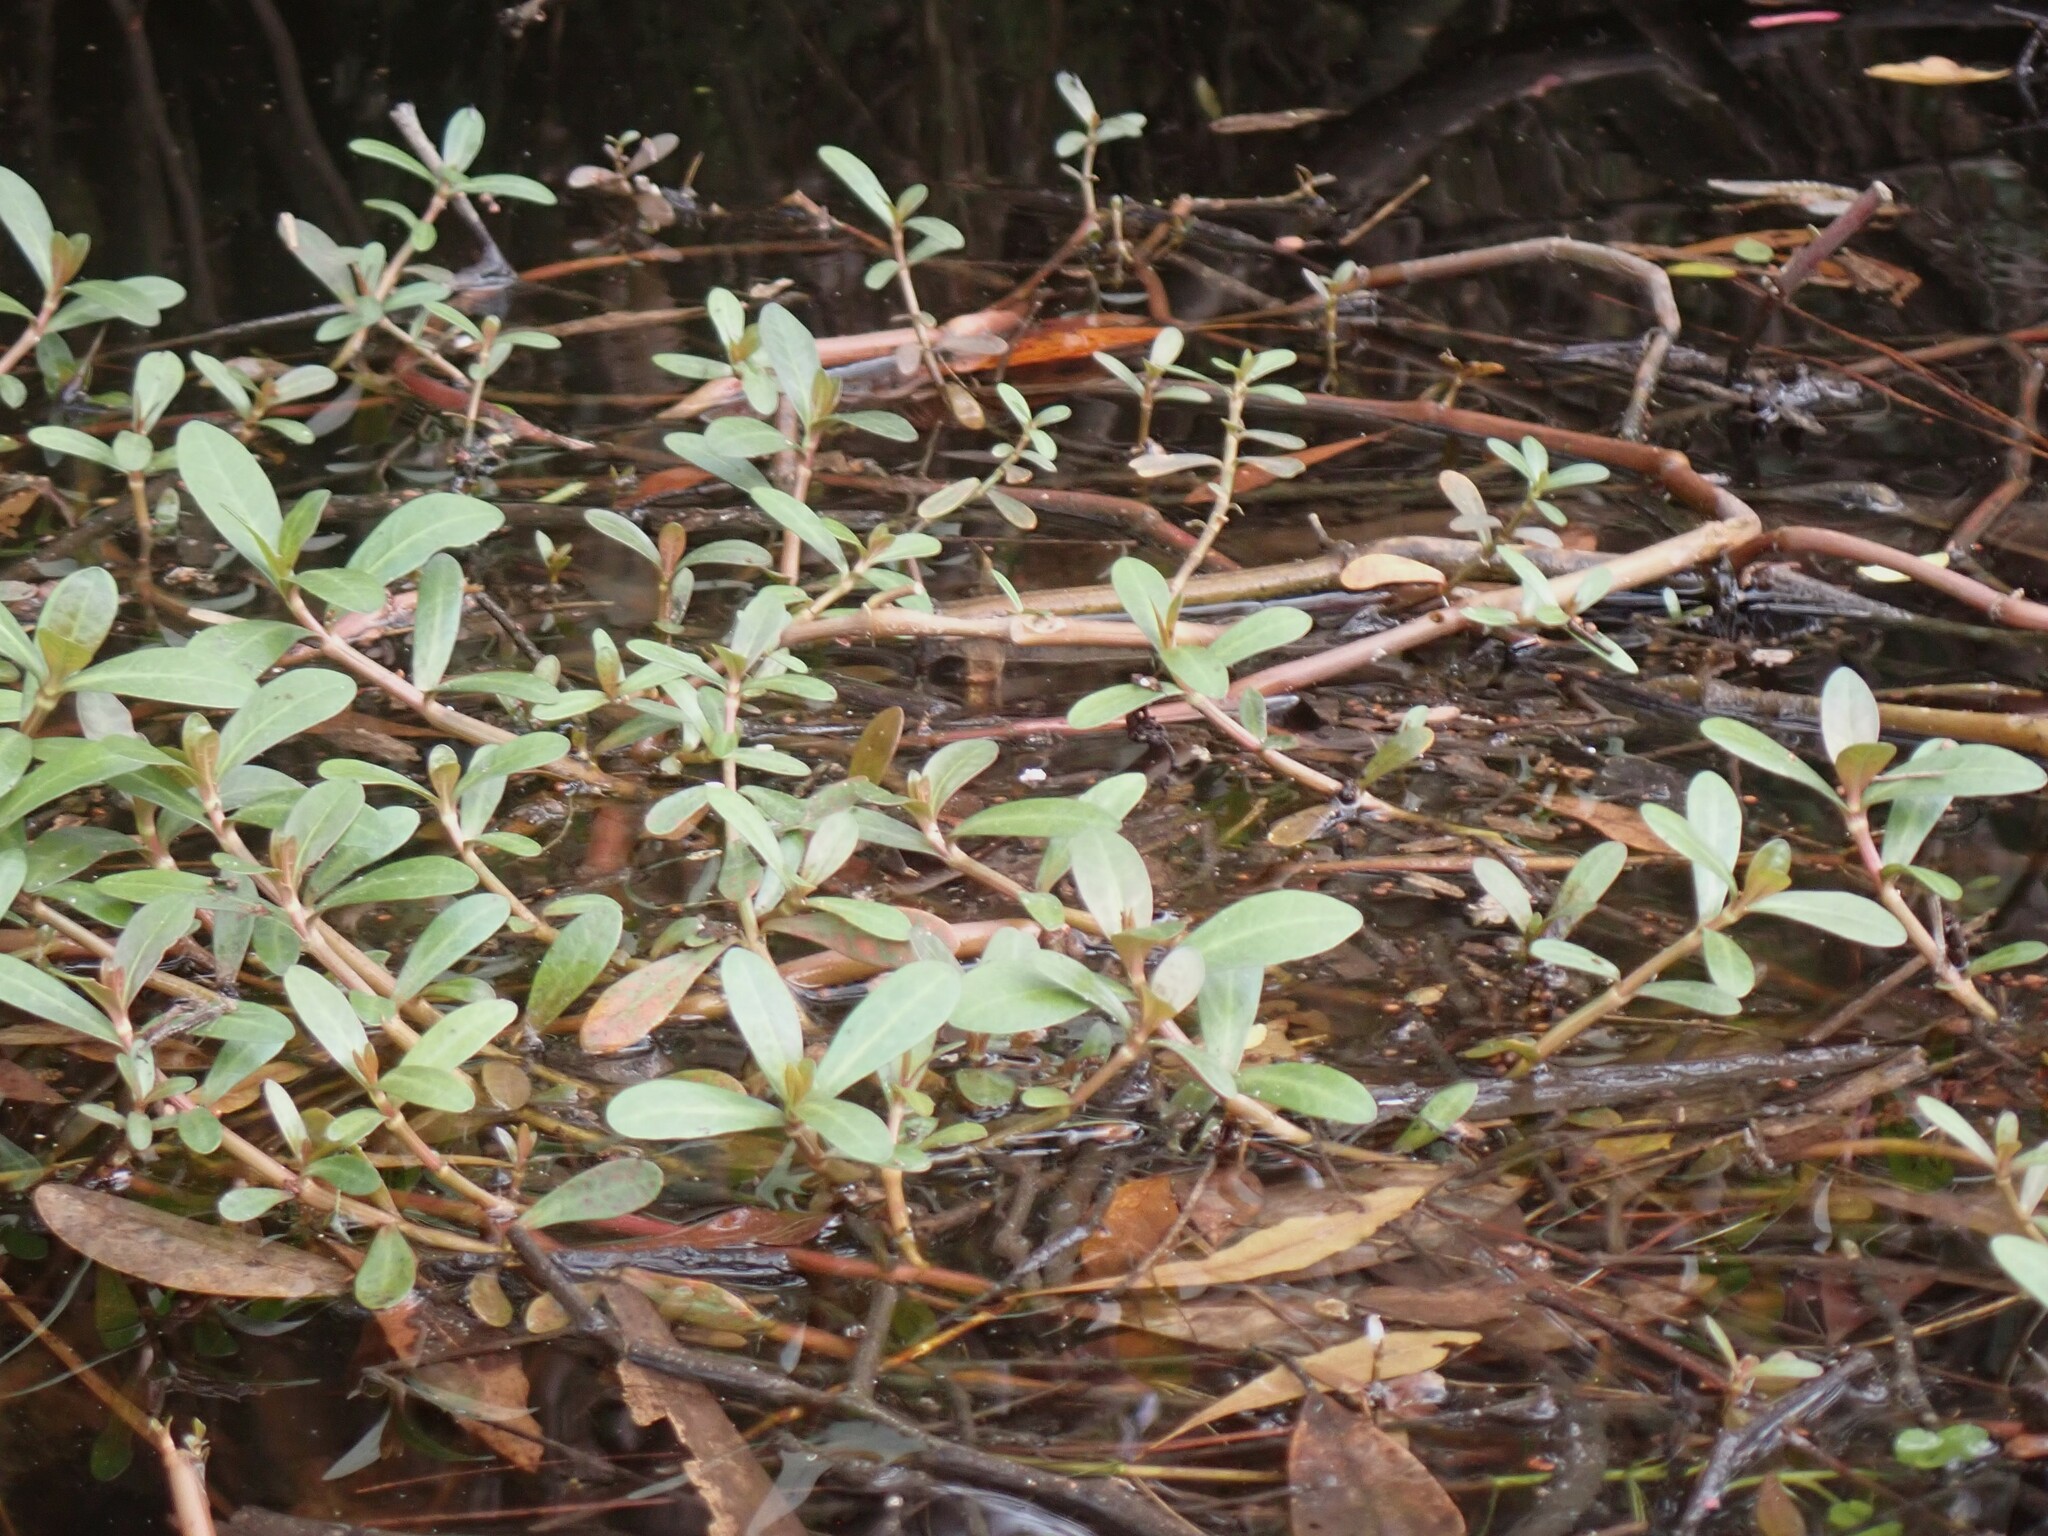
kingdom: Plantae
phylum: Tracheophyta
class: Magnoliopsida
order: Caryophyllales
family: Amaranthaceae
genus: Alternanthera
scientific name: Alternanthera philoxeroides
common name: Alligatorweed
